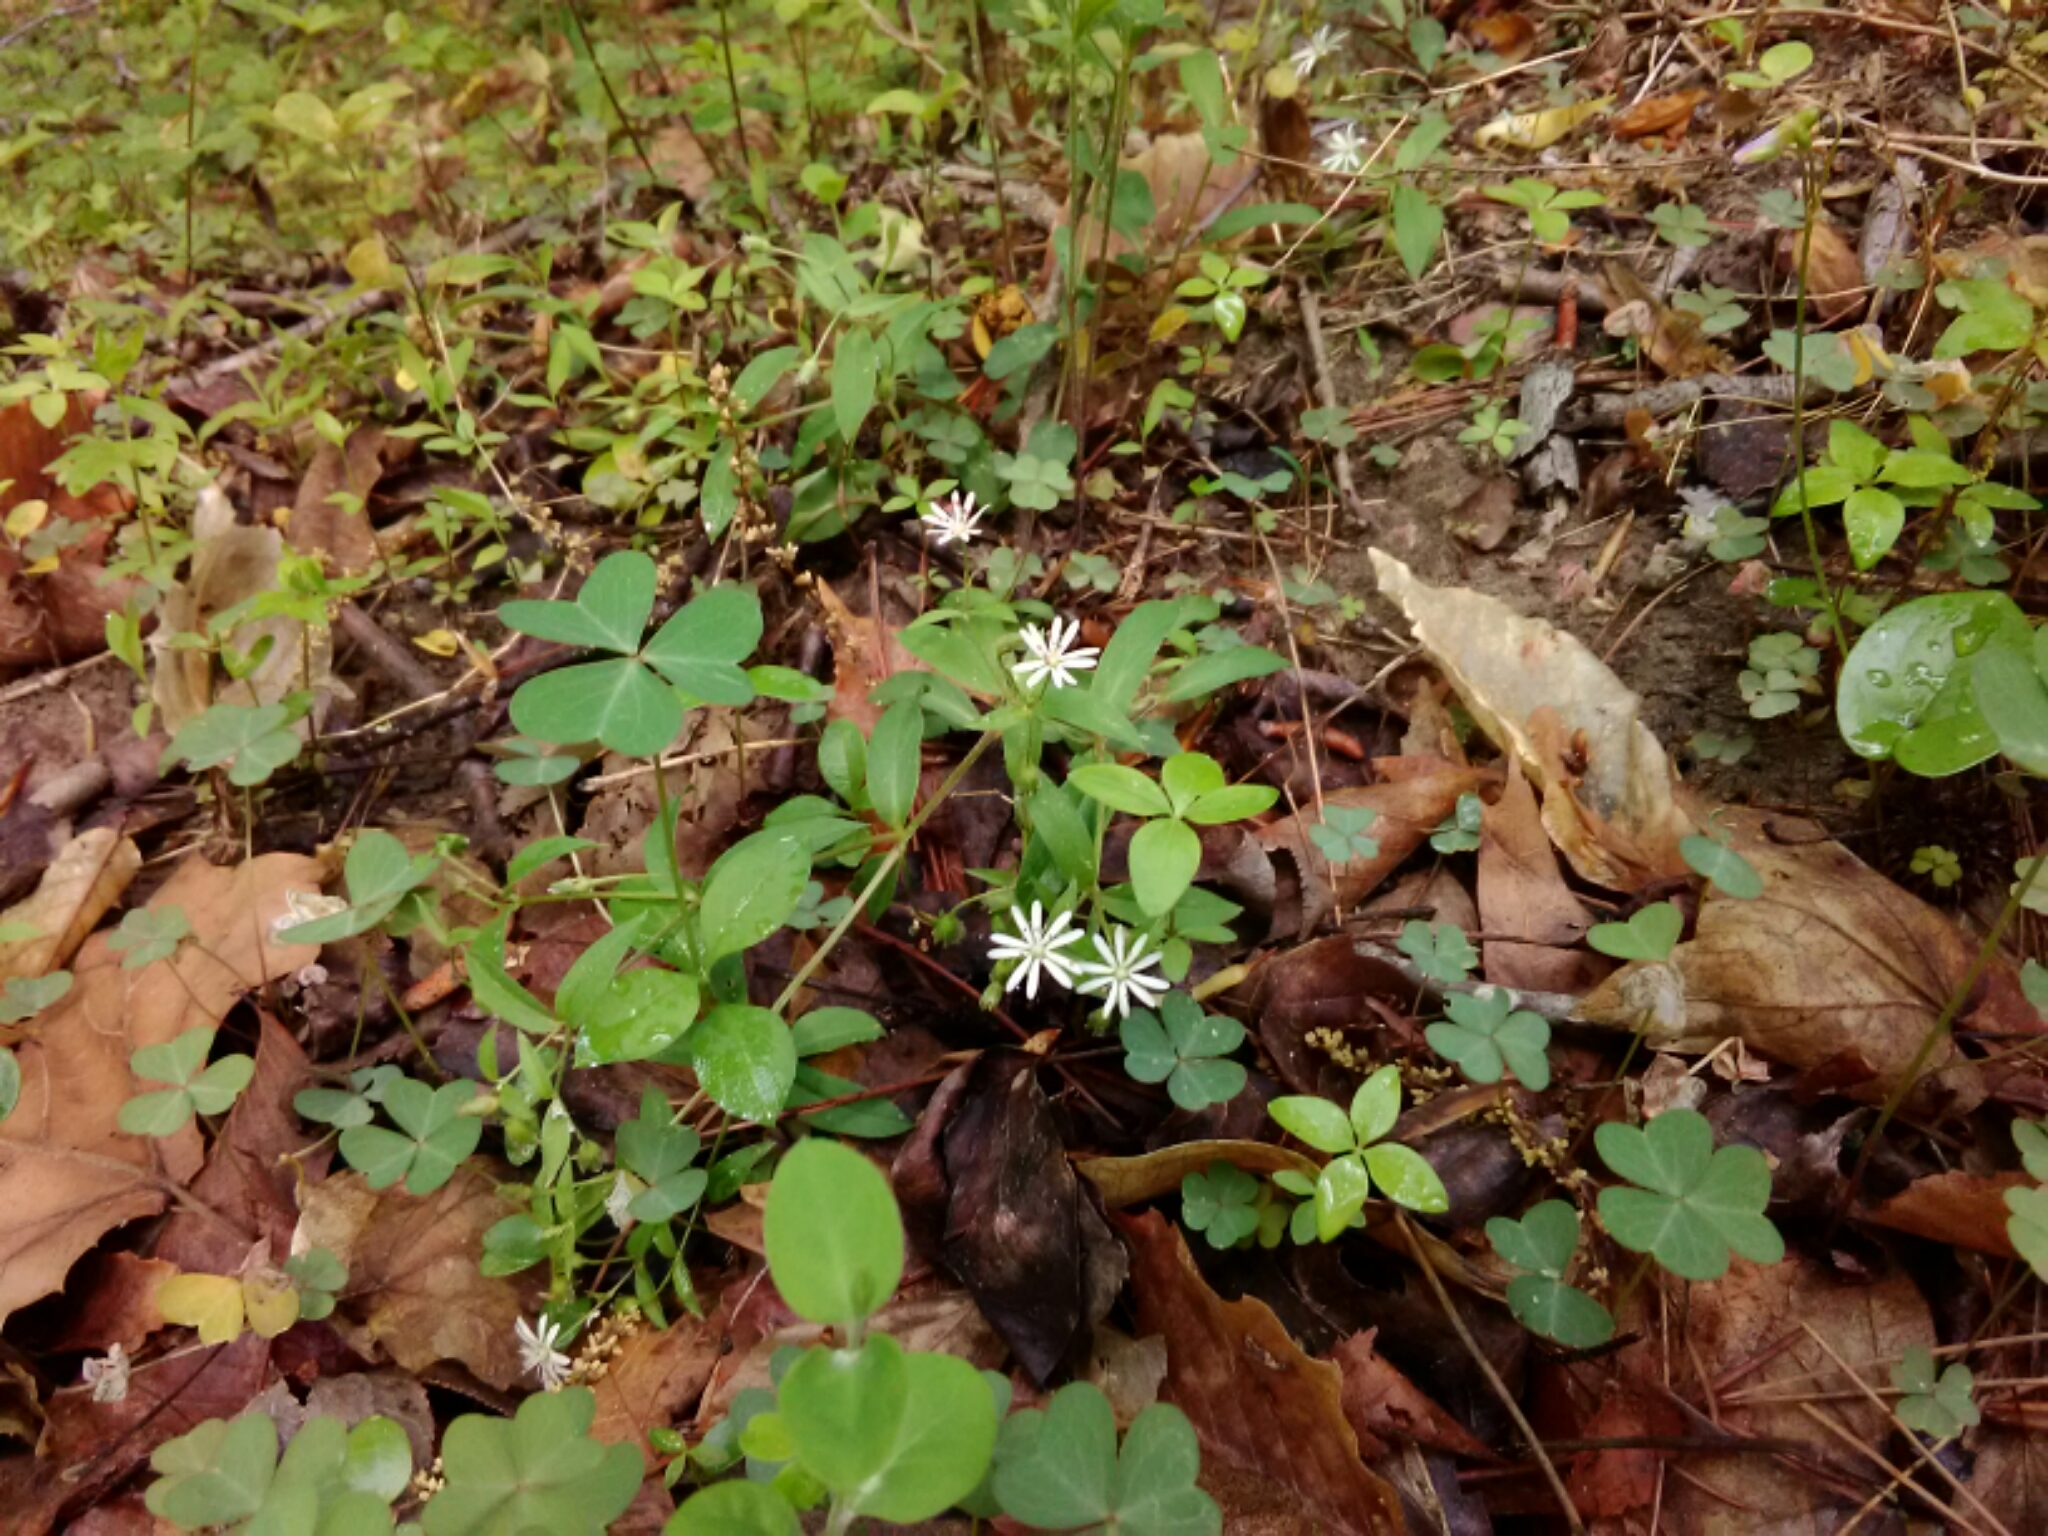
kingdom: Plantae
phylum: Tracheophyta
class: Magnoliopsida
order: Caryophyllales
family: Caryophyllaceae
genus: Stellaria
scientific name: Stellaria pubera
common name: Star chickweed
